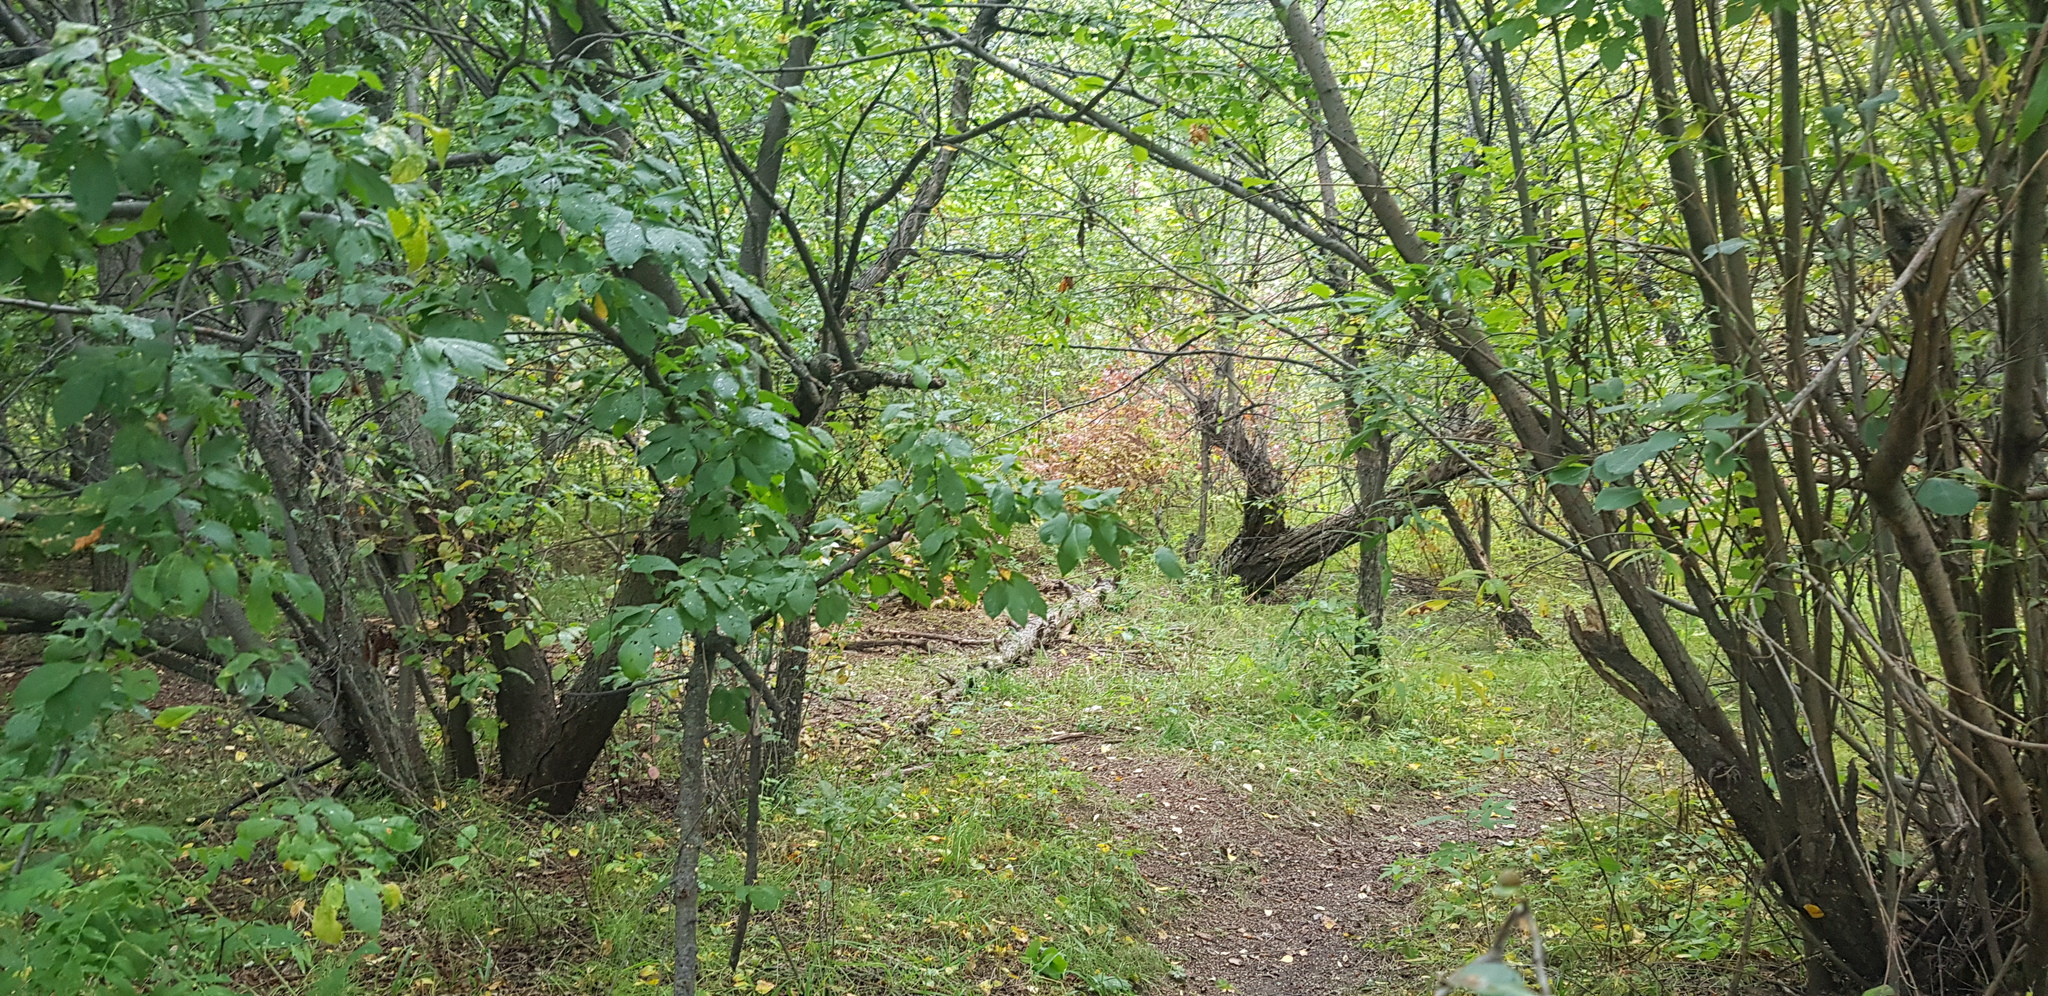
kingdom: Plantae
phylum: Tracheophyta
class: Magnoliopsida
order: Rosales
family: Rosaceae
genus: Prunus
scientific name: Prunus padus
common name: Bird cherry
